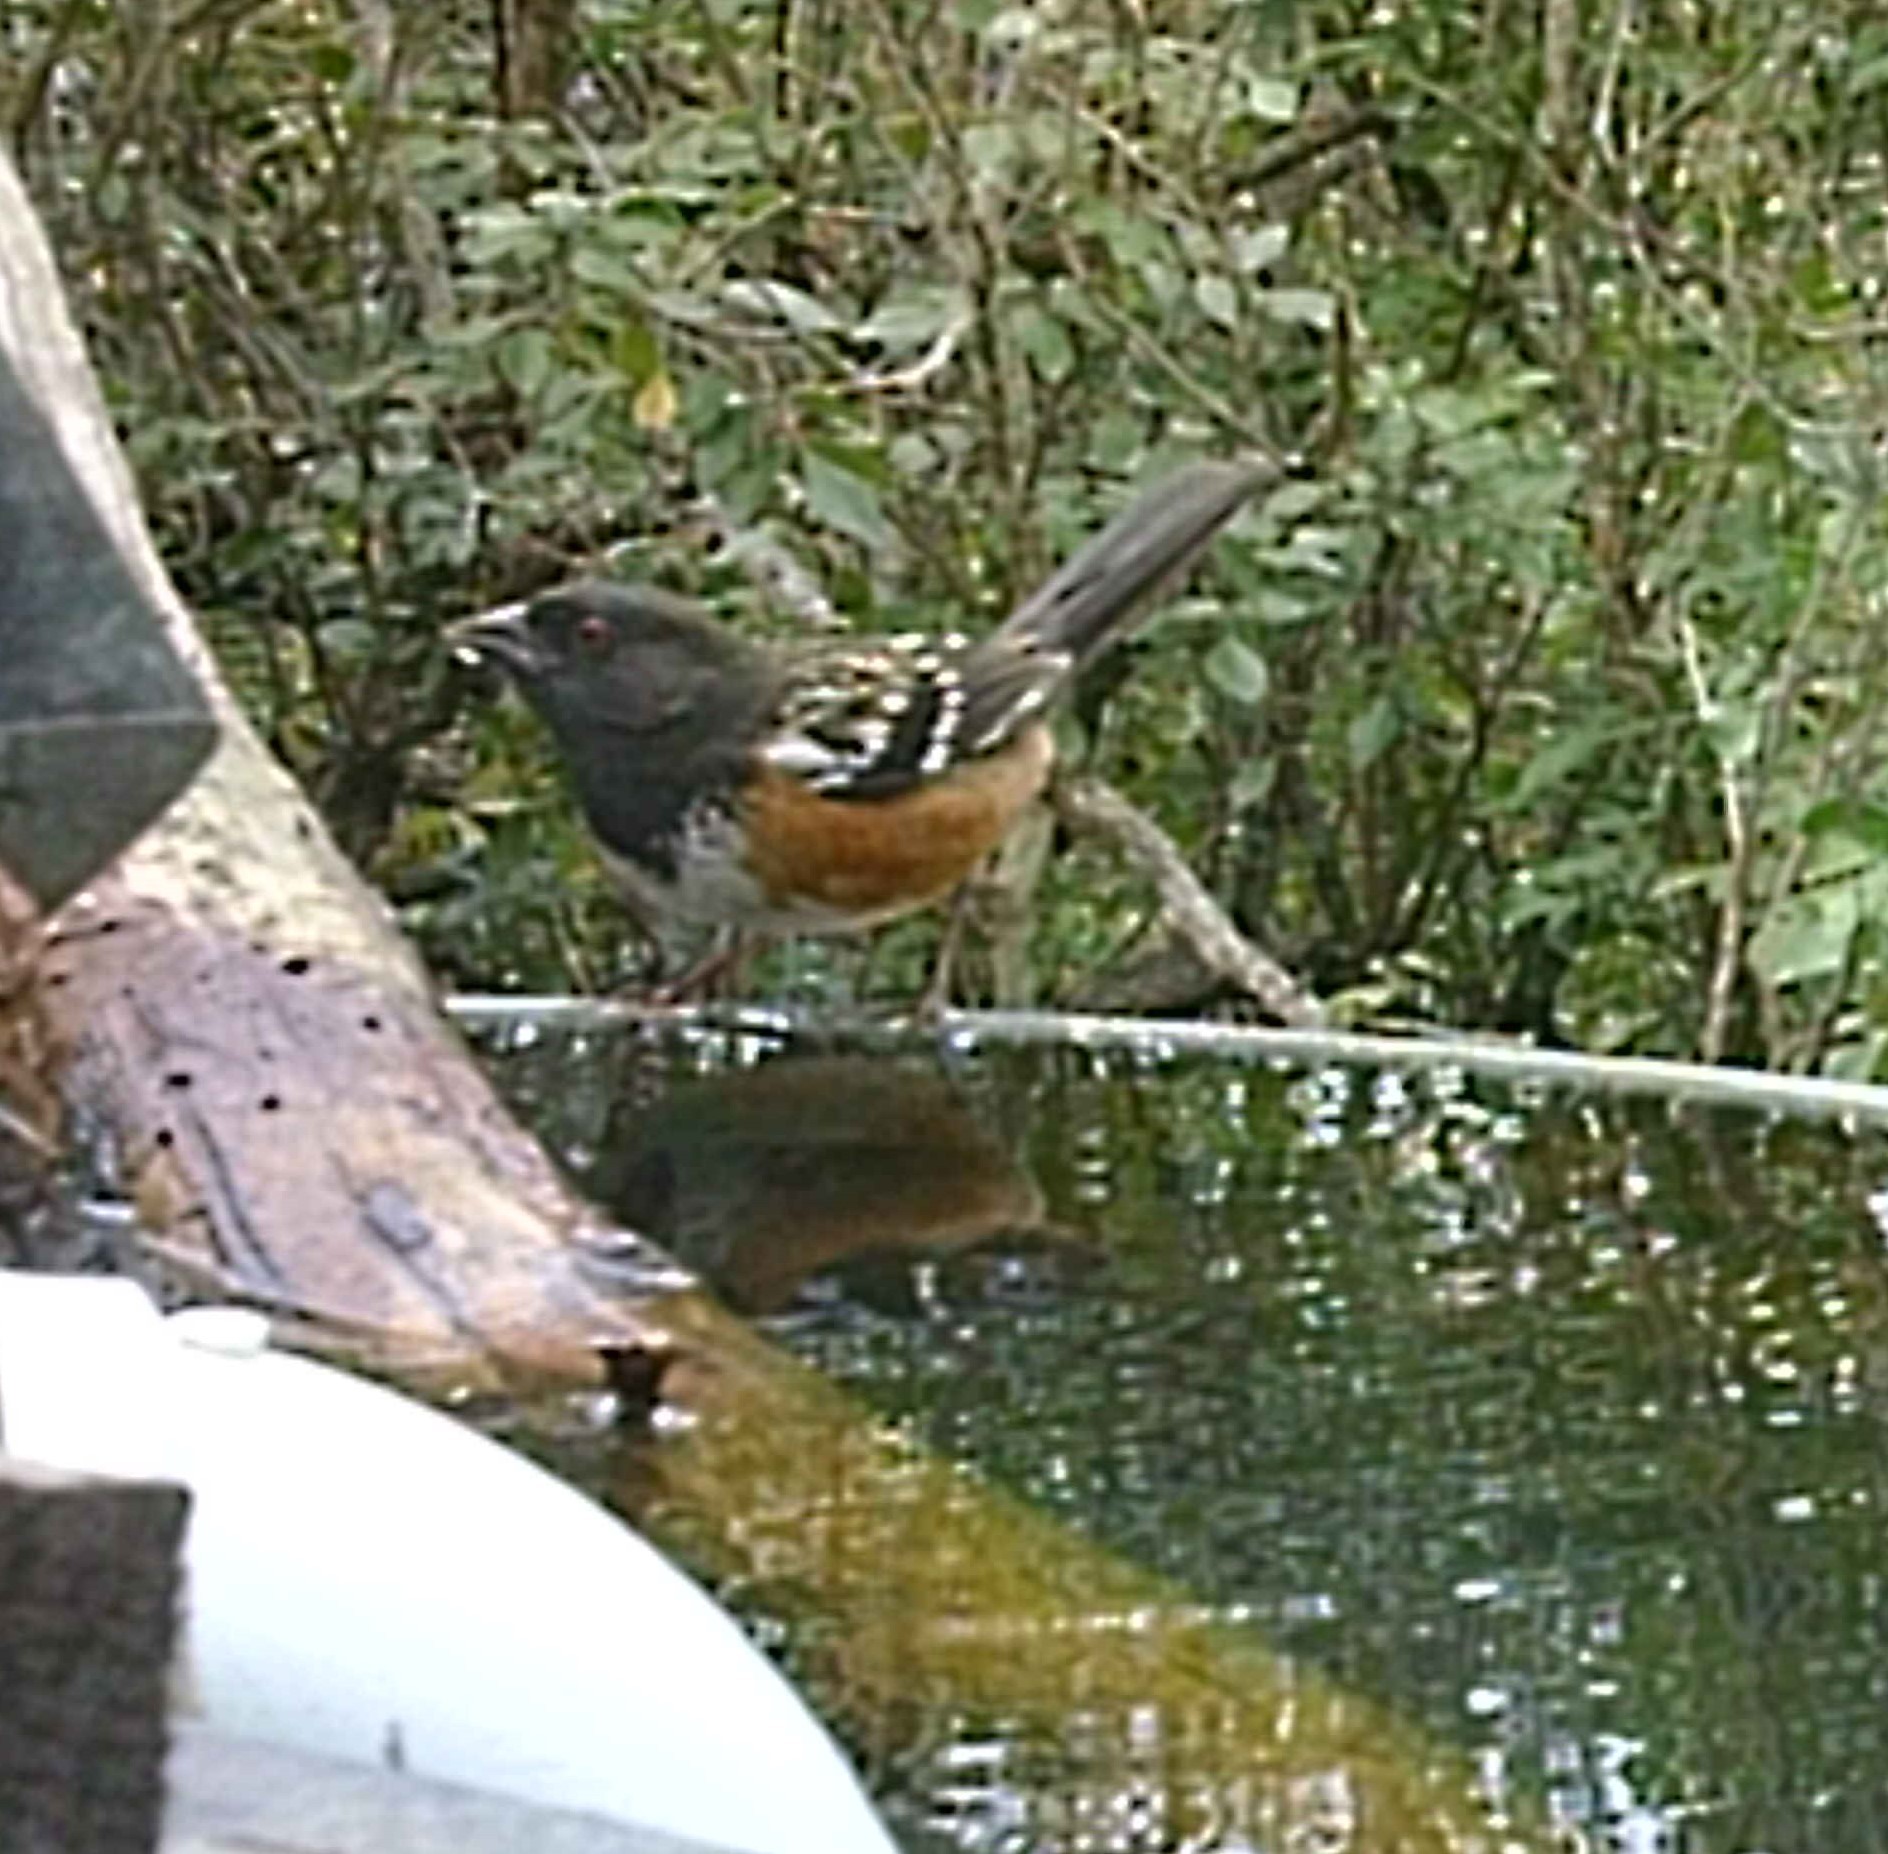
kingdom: Animalia
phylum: Chordata
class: Aves
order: Passeriformes
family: Passerellidae
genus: Pipilo
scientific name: Pipilo maculatus
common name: Spotted towhee
